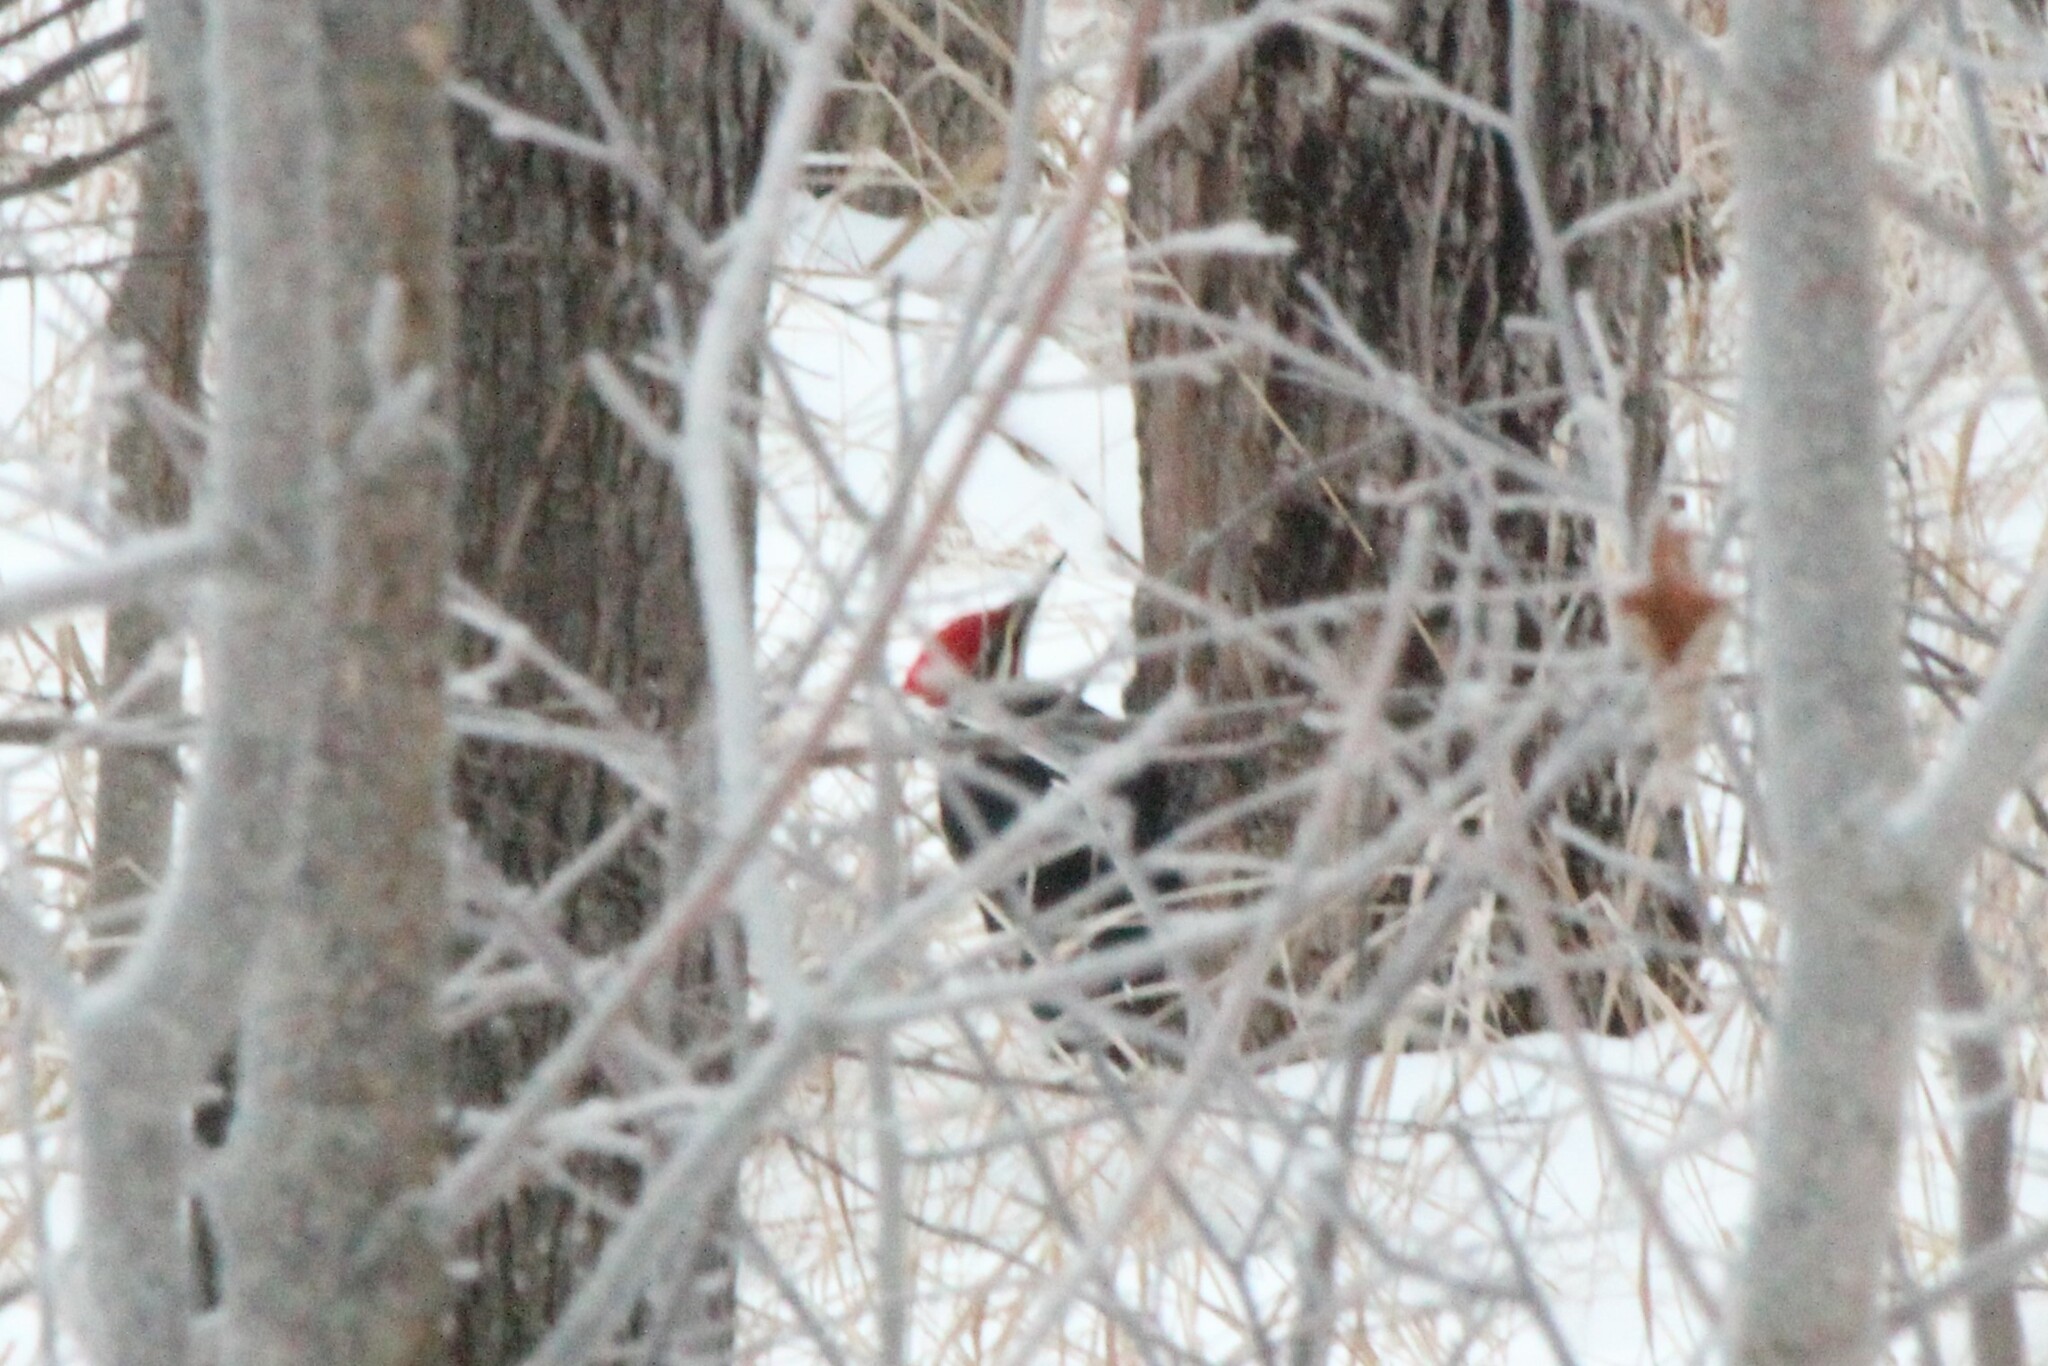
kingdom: Animalia
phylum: Chordata
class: Aves
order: Piciformes
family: Picidae
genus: Dryocopus
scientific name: Dryocopus pileatus
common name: Pileated woodpecker
